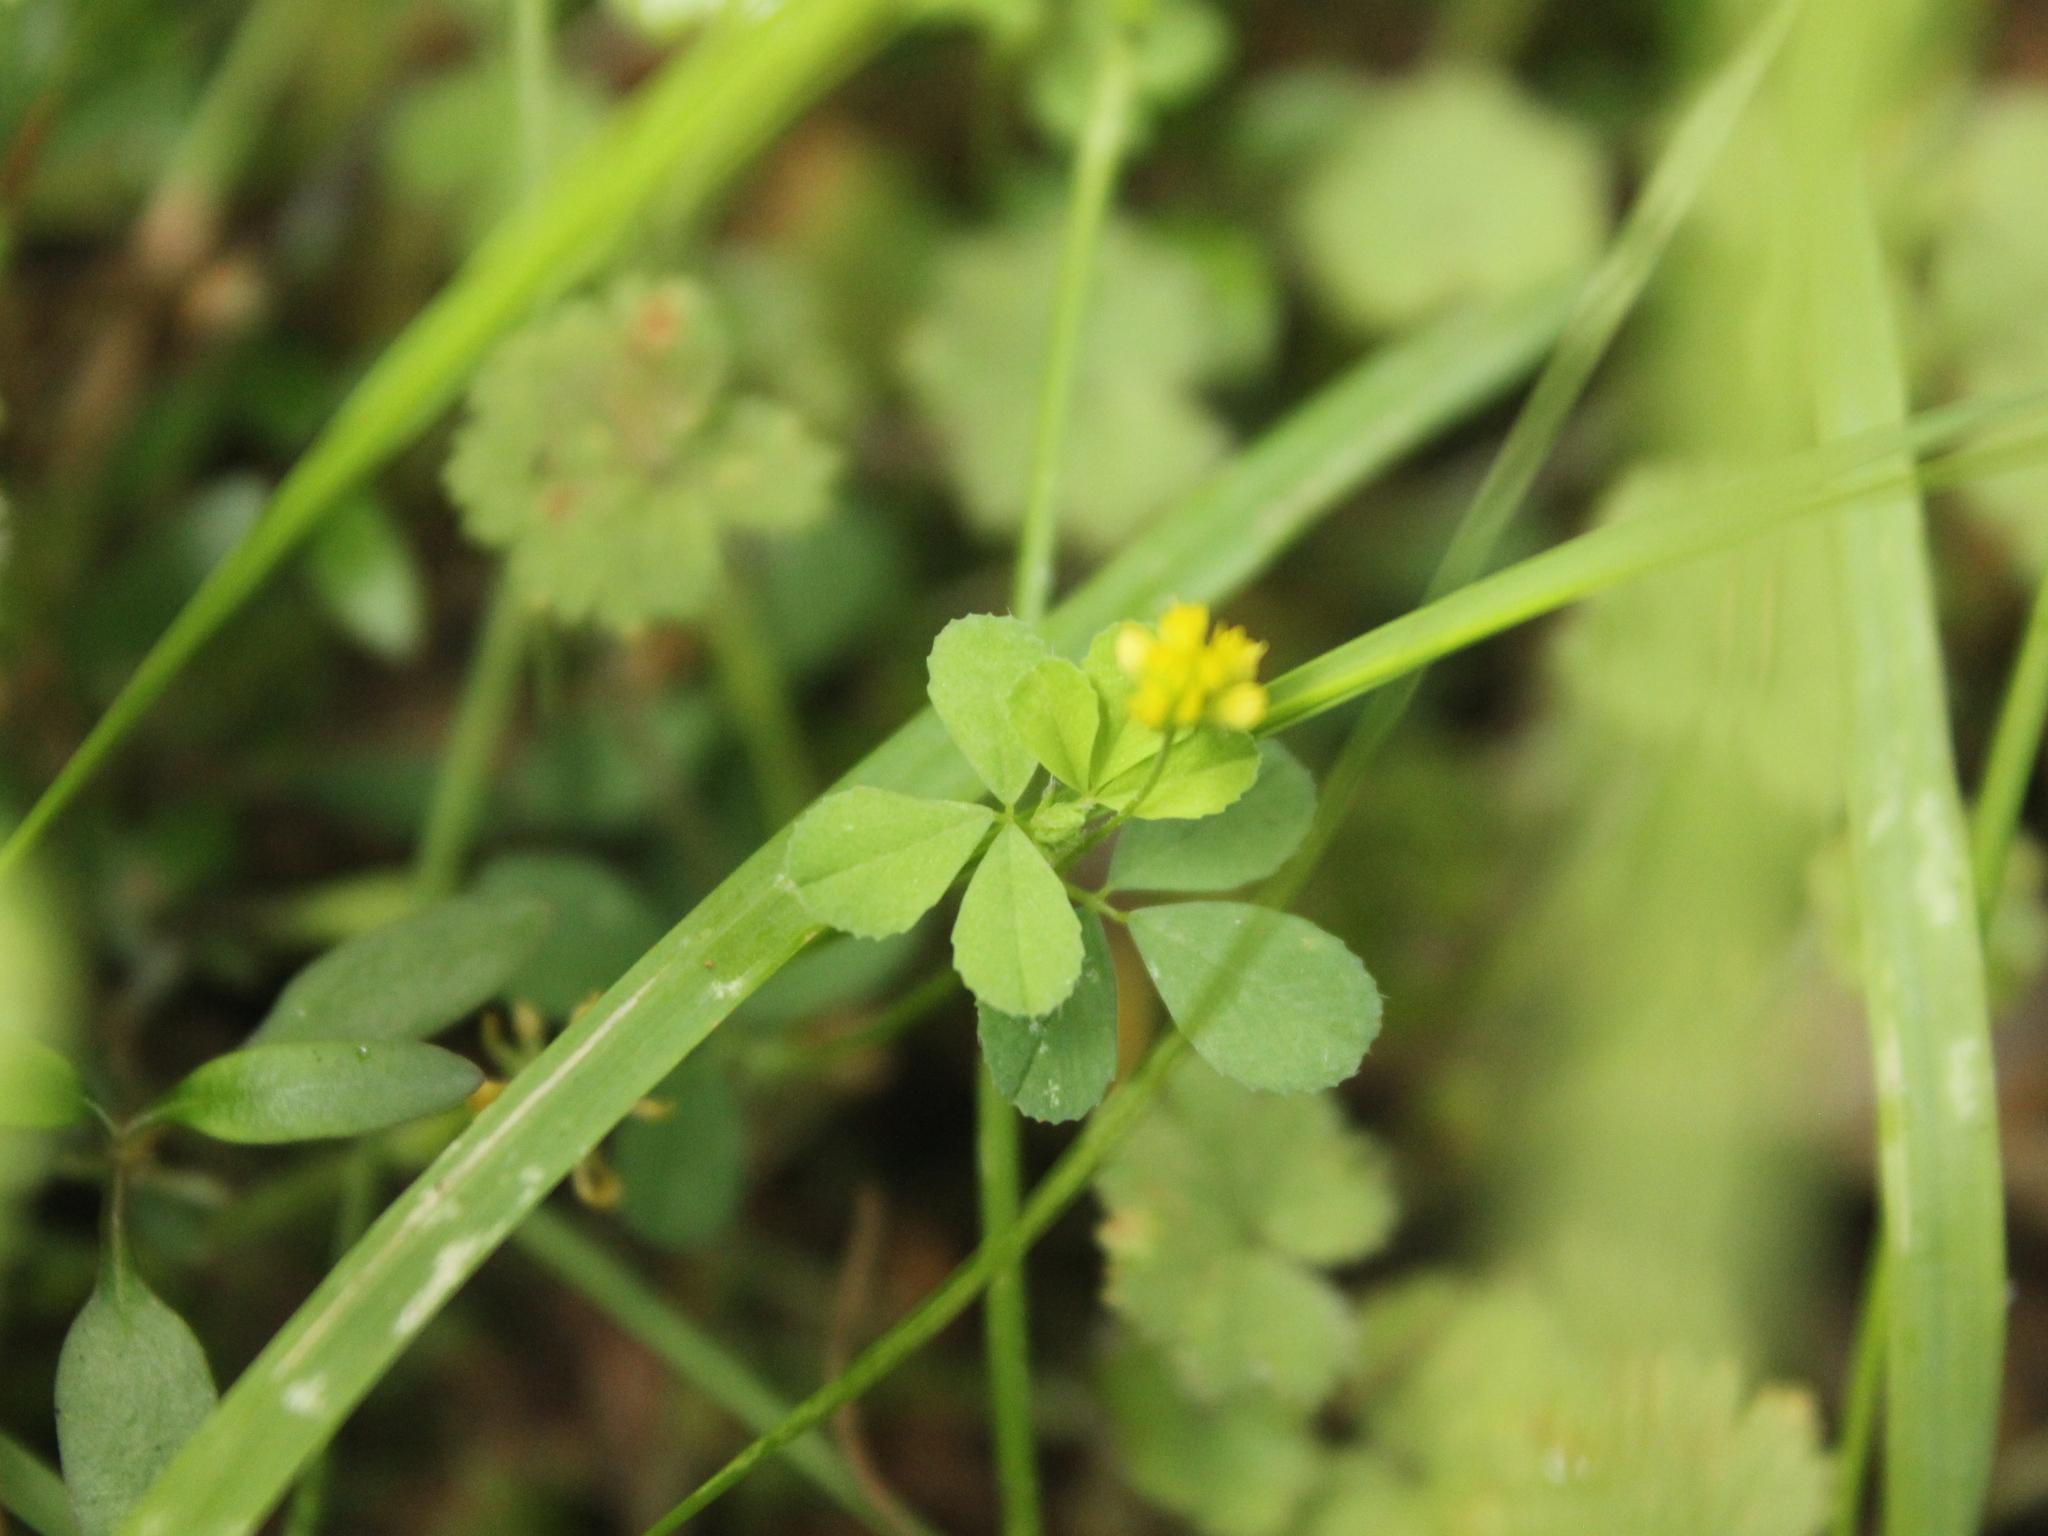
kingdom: Plantae
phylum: Tracheophyta
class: Magnoliopsida
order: Fabales
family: Fabaceae
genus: Trifolium
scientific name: Trifolium dubium
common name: Suckling clover
